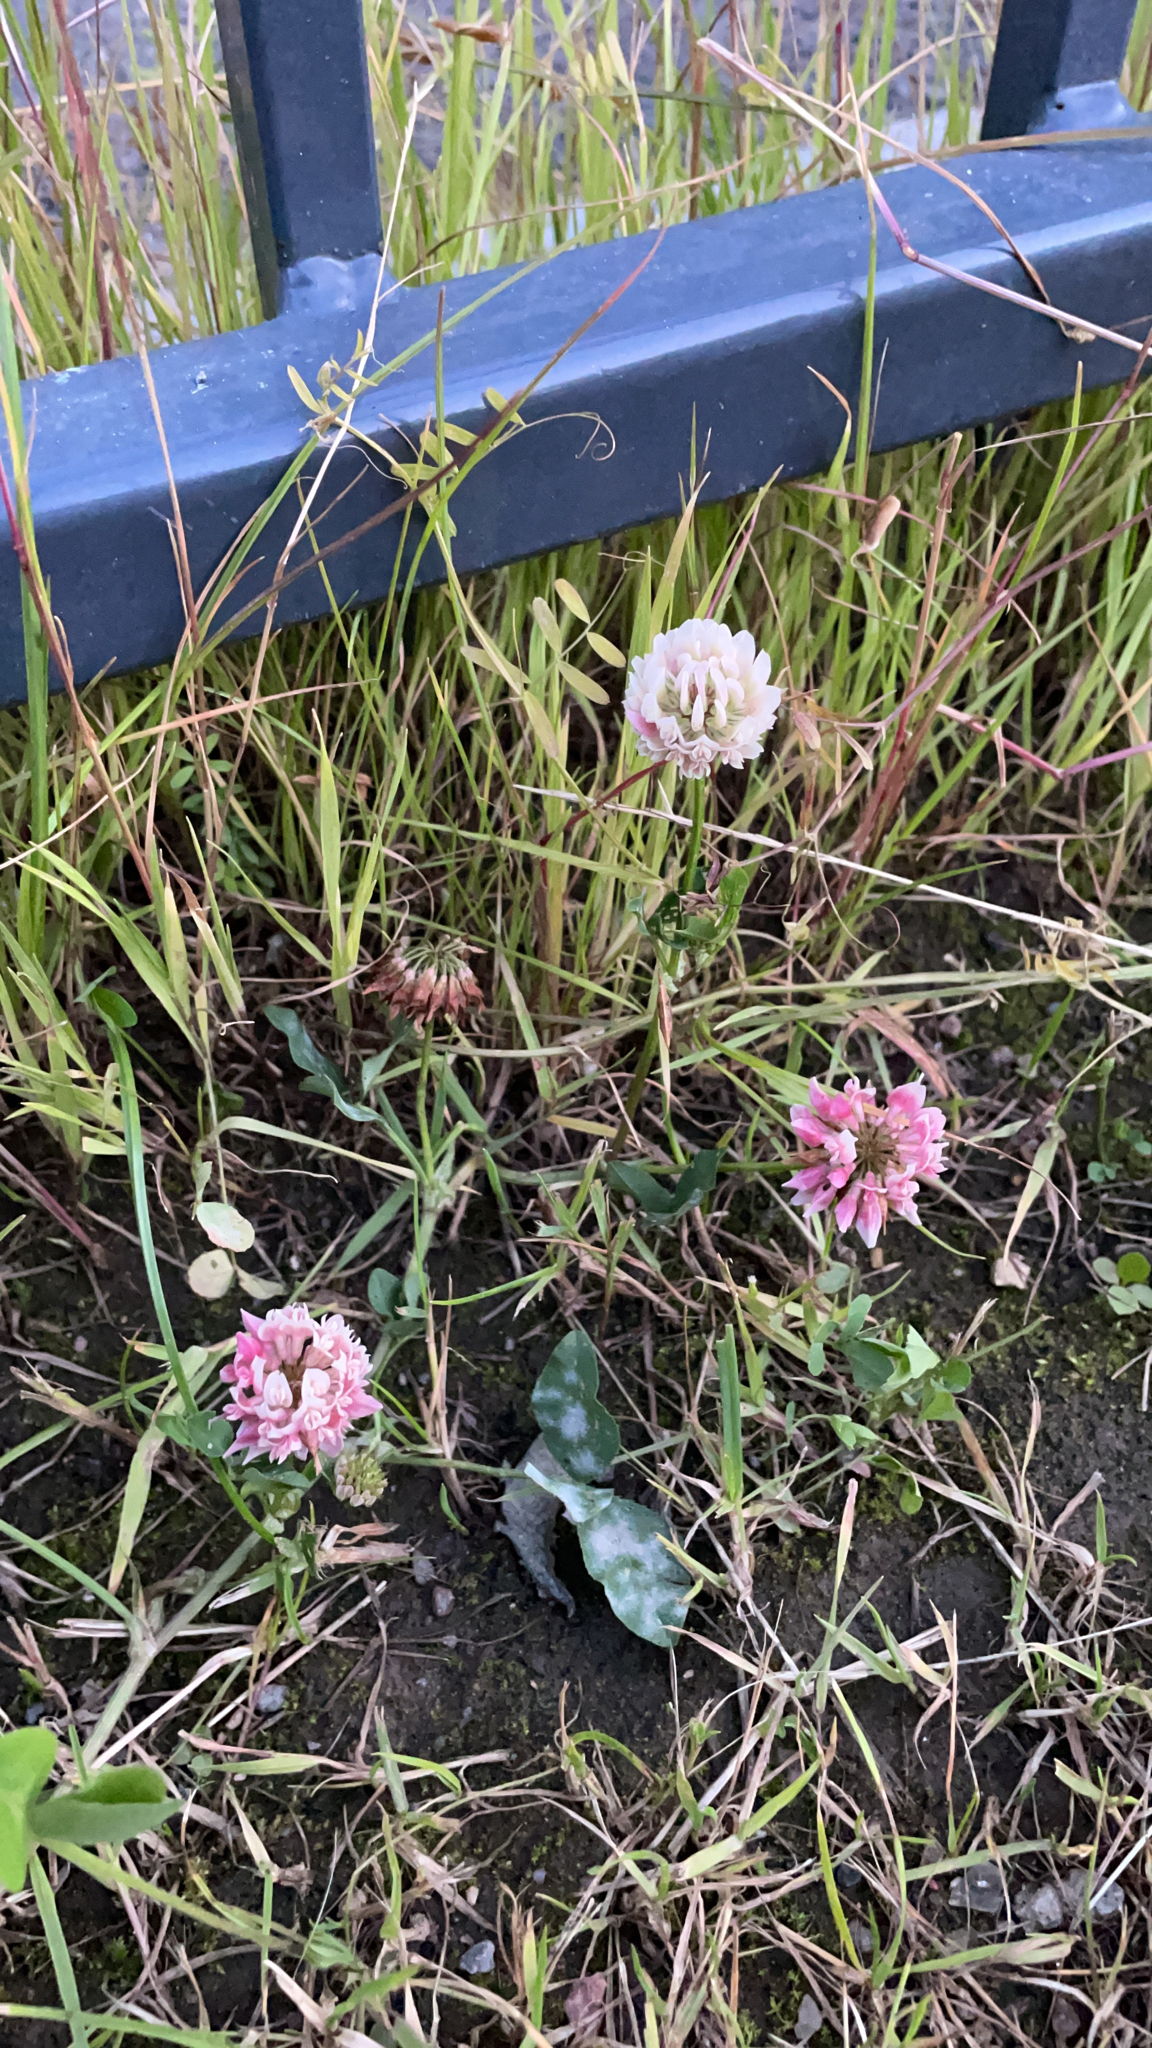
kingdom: Plantae
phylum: Tracheophyta
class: Magnoliopsida
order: Fabales
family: Fabaceae
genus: Trifolium
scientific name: Trifolium hybridum
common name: Alsike clover
